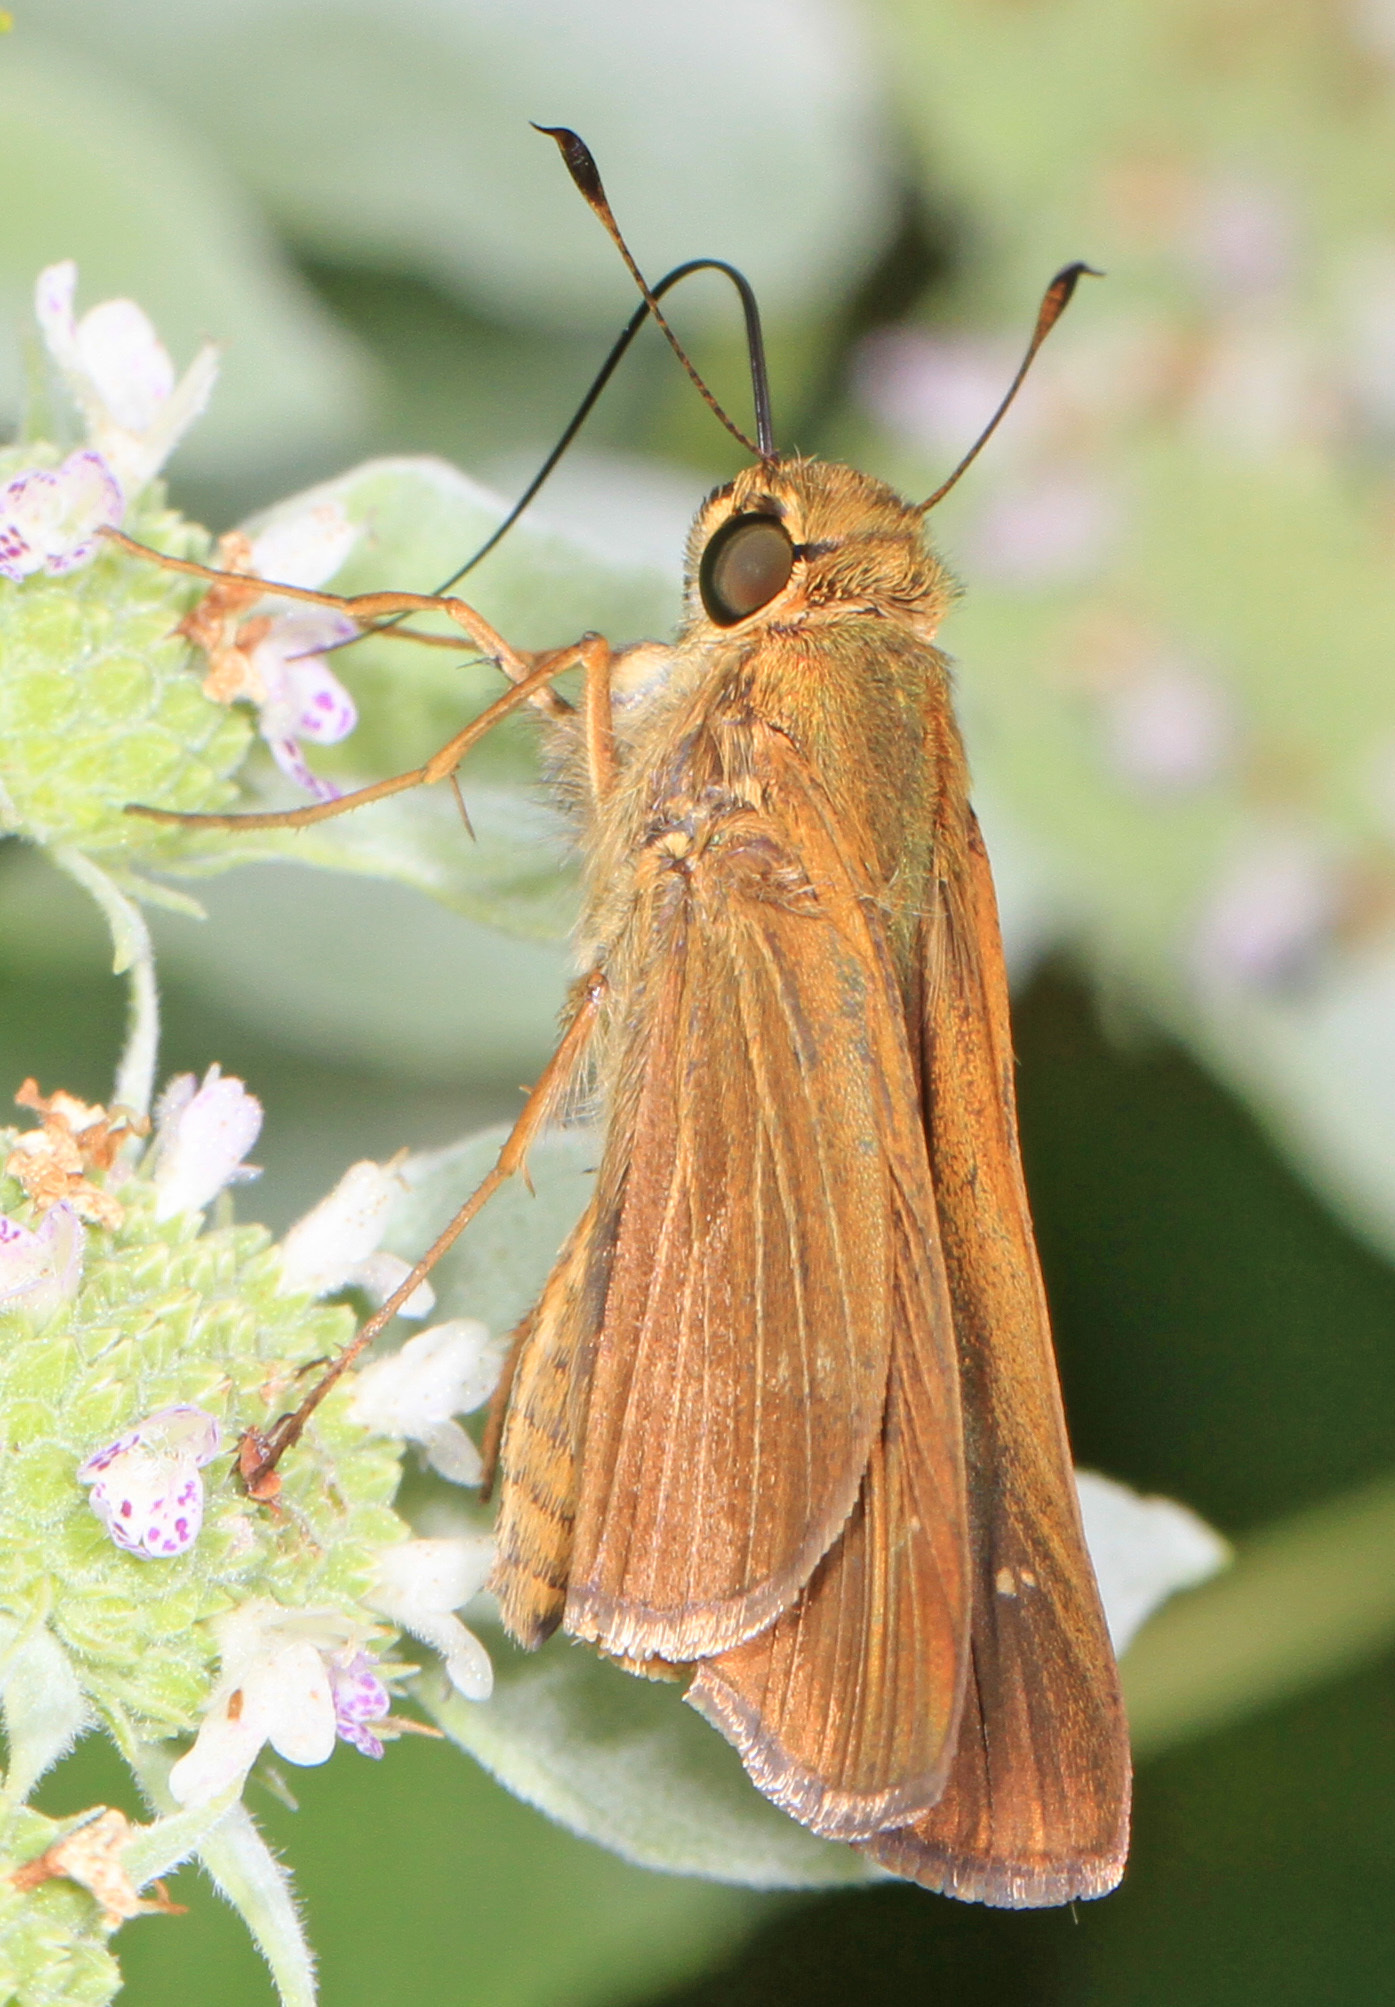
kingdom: Animalia
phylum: Arthropoda
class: Insecta
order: Lepidoptera
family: Hesperiidae
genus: Panoquina
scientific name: Panoquina ocola
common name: Ocola skipper
